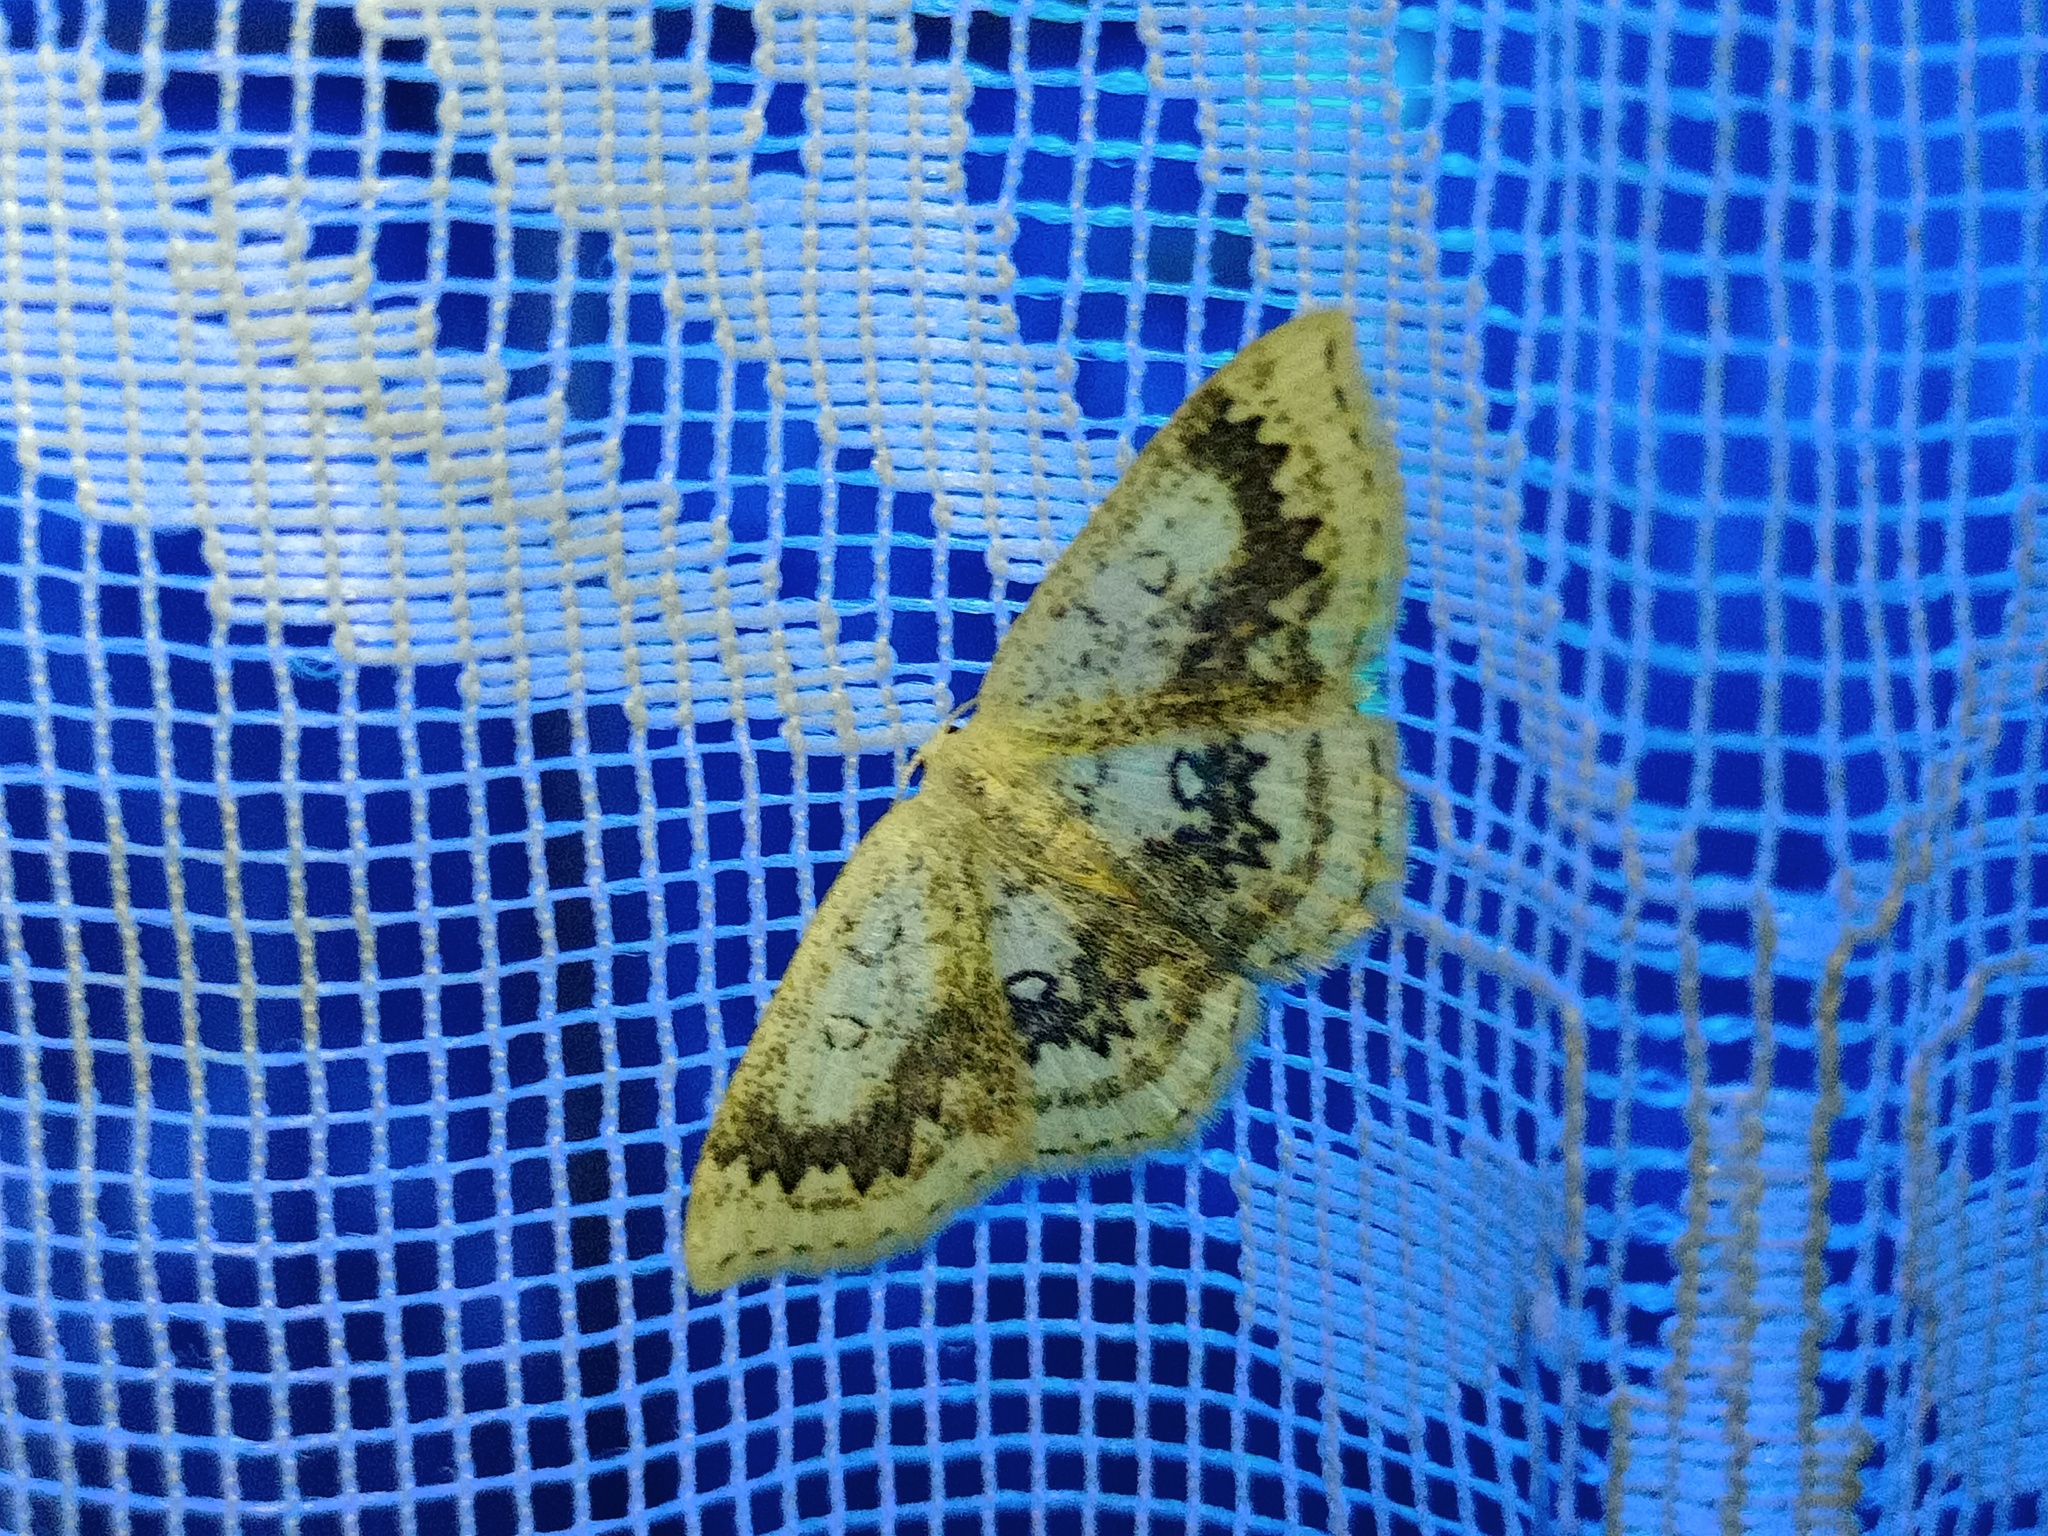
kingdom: Animalia
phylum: Arthropoda
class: Insecta
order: Lepidoptera
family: Geometridae
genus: Cyclophora
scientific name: Cyclophora annularia
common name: Mocha
